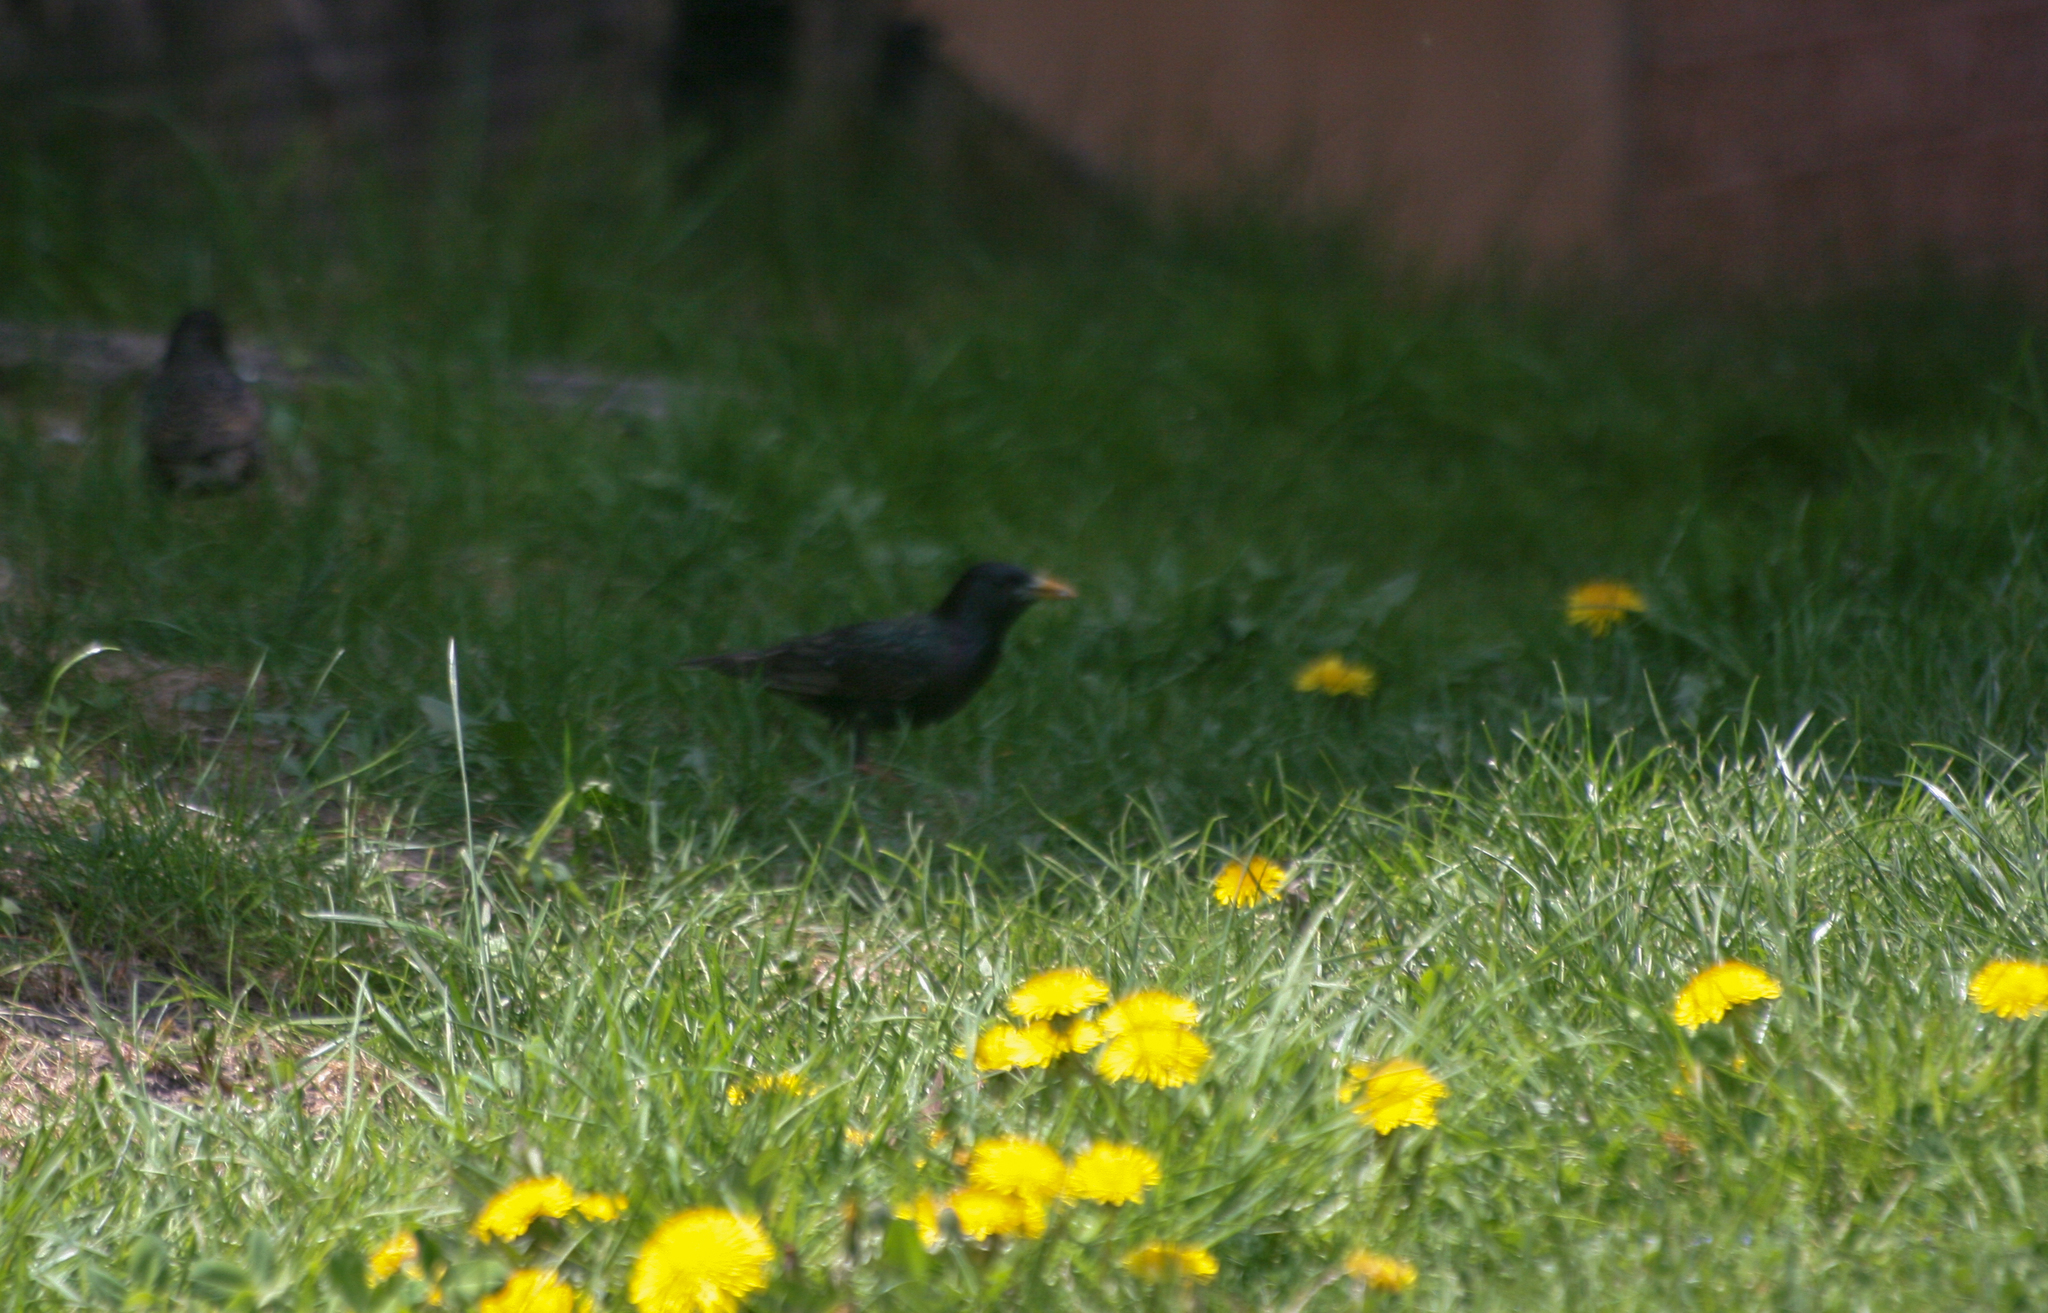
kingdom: Animalia
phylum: Chordata
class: Aves
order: Passeriformes
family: Sturnidae
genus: Sturnus
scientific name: Sturnus vulgaris
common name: Common starling
